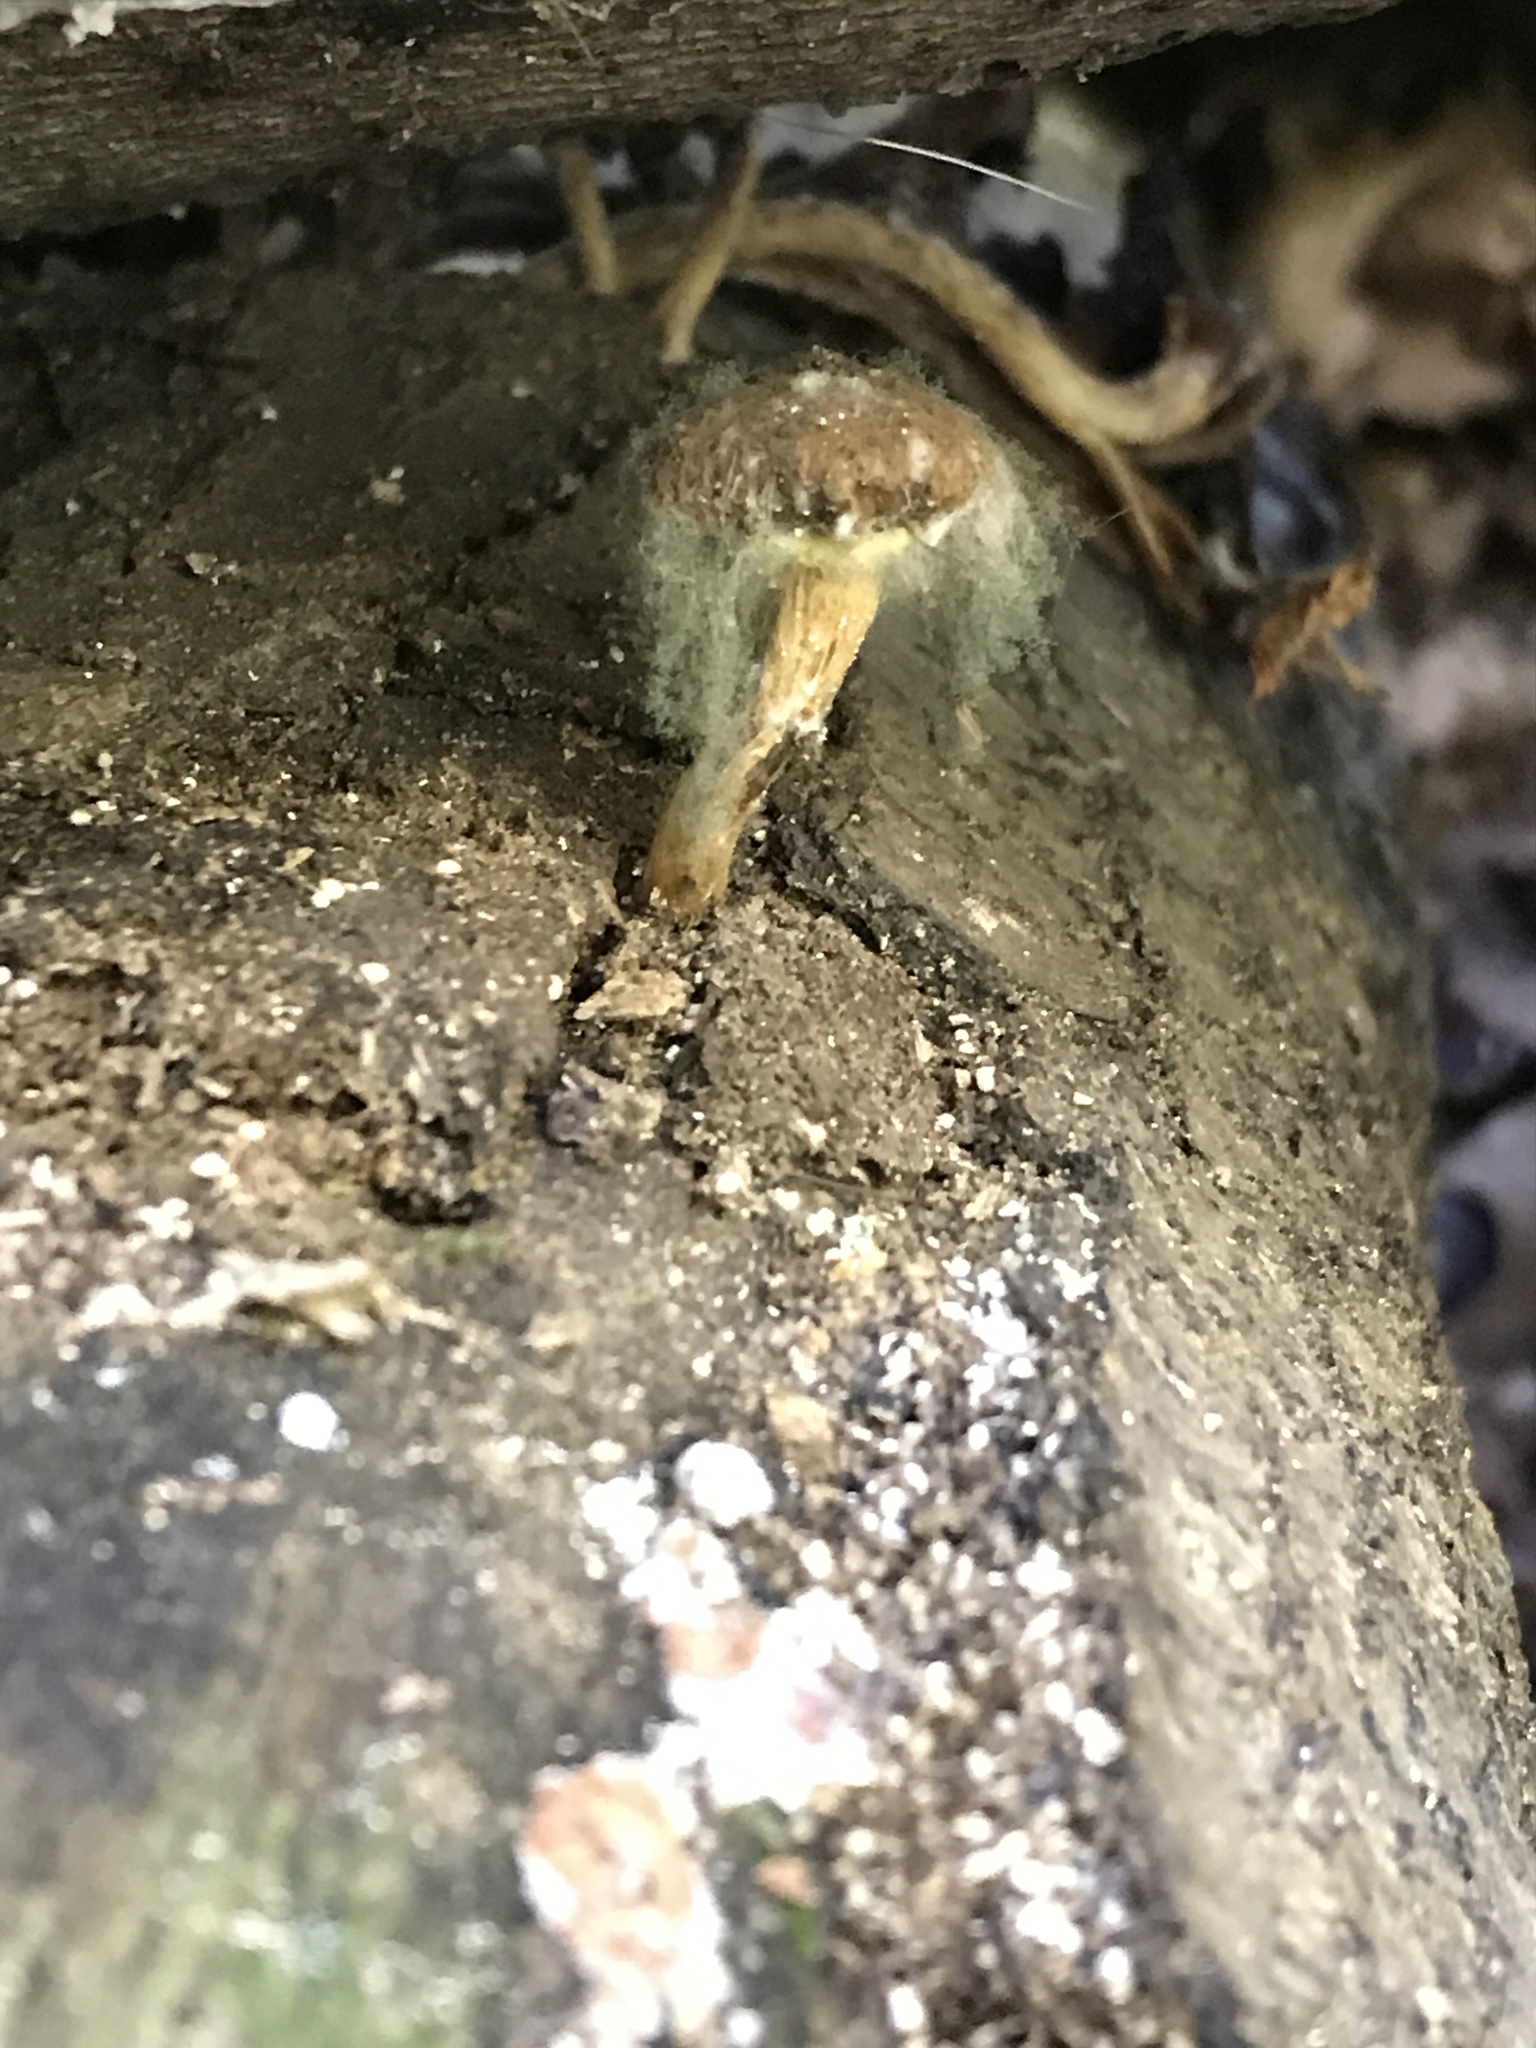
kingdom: Fungi
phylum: Mucoromycota
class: Mucoromycetes
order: Mucorales
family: Rhizopodaceae
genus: Syzygites
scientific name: Syzygites megalocarpus
